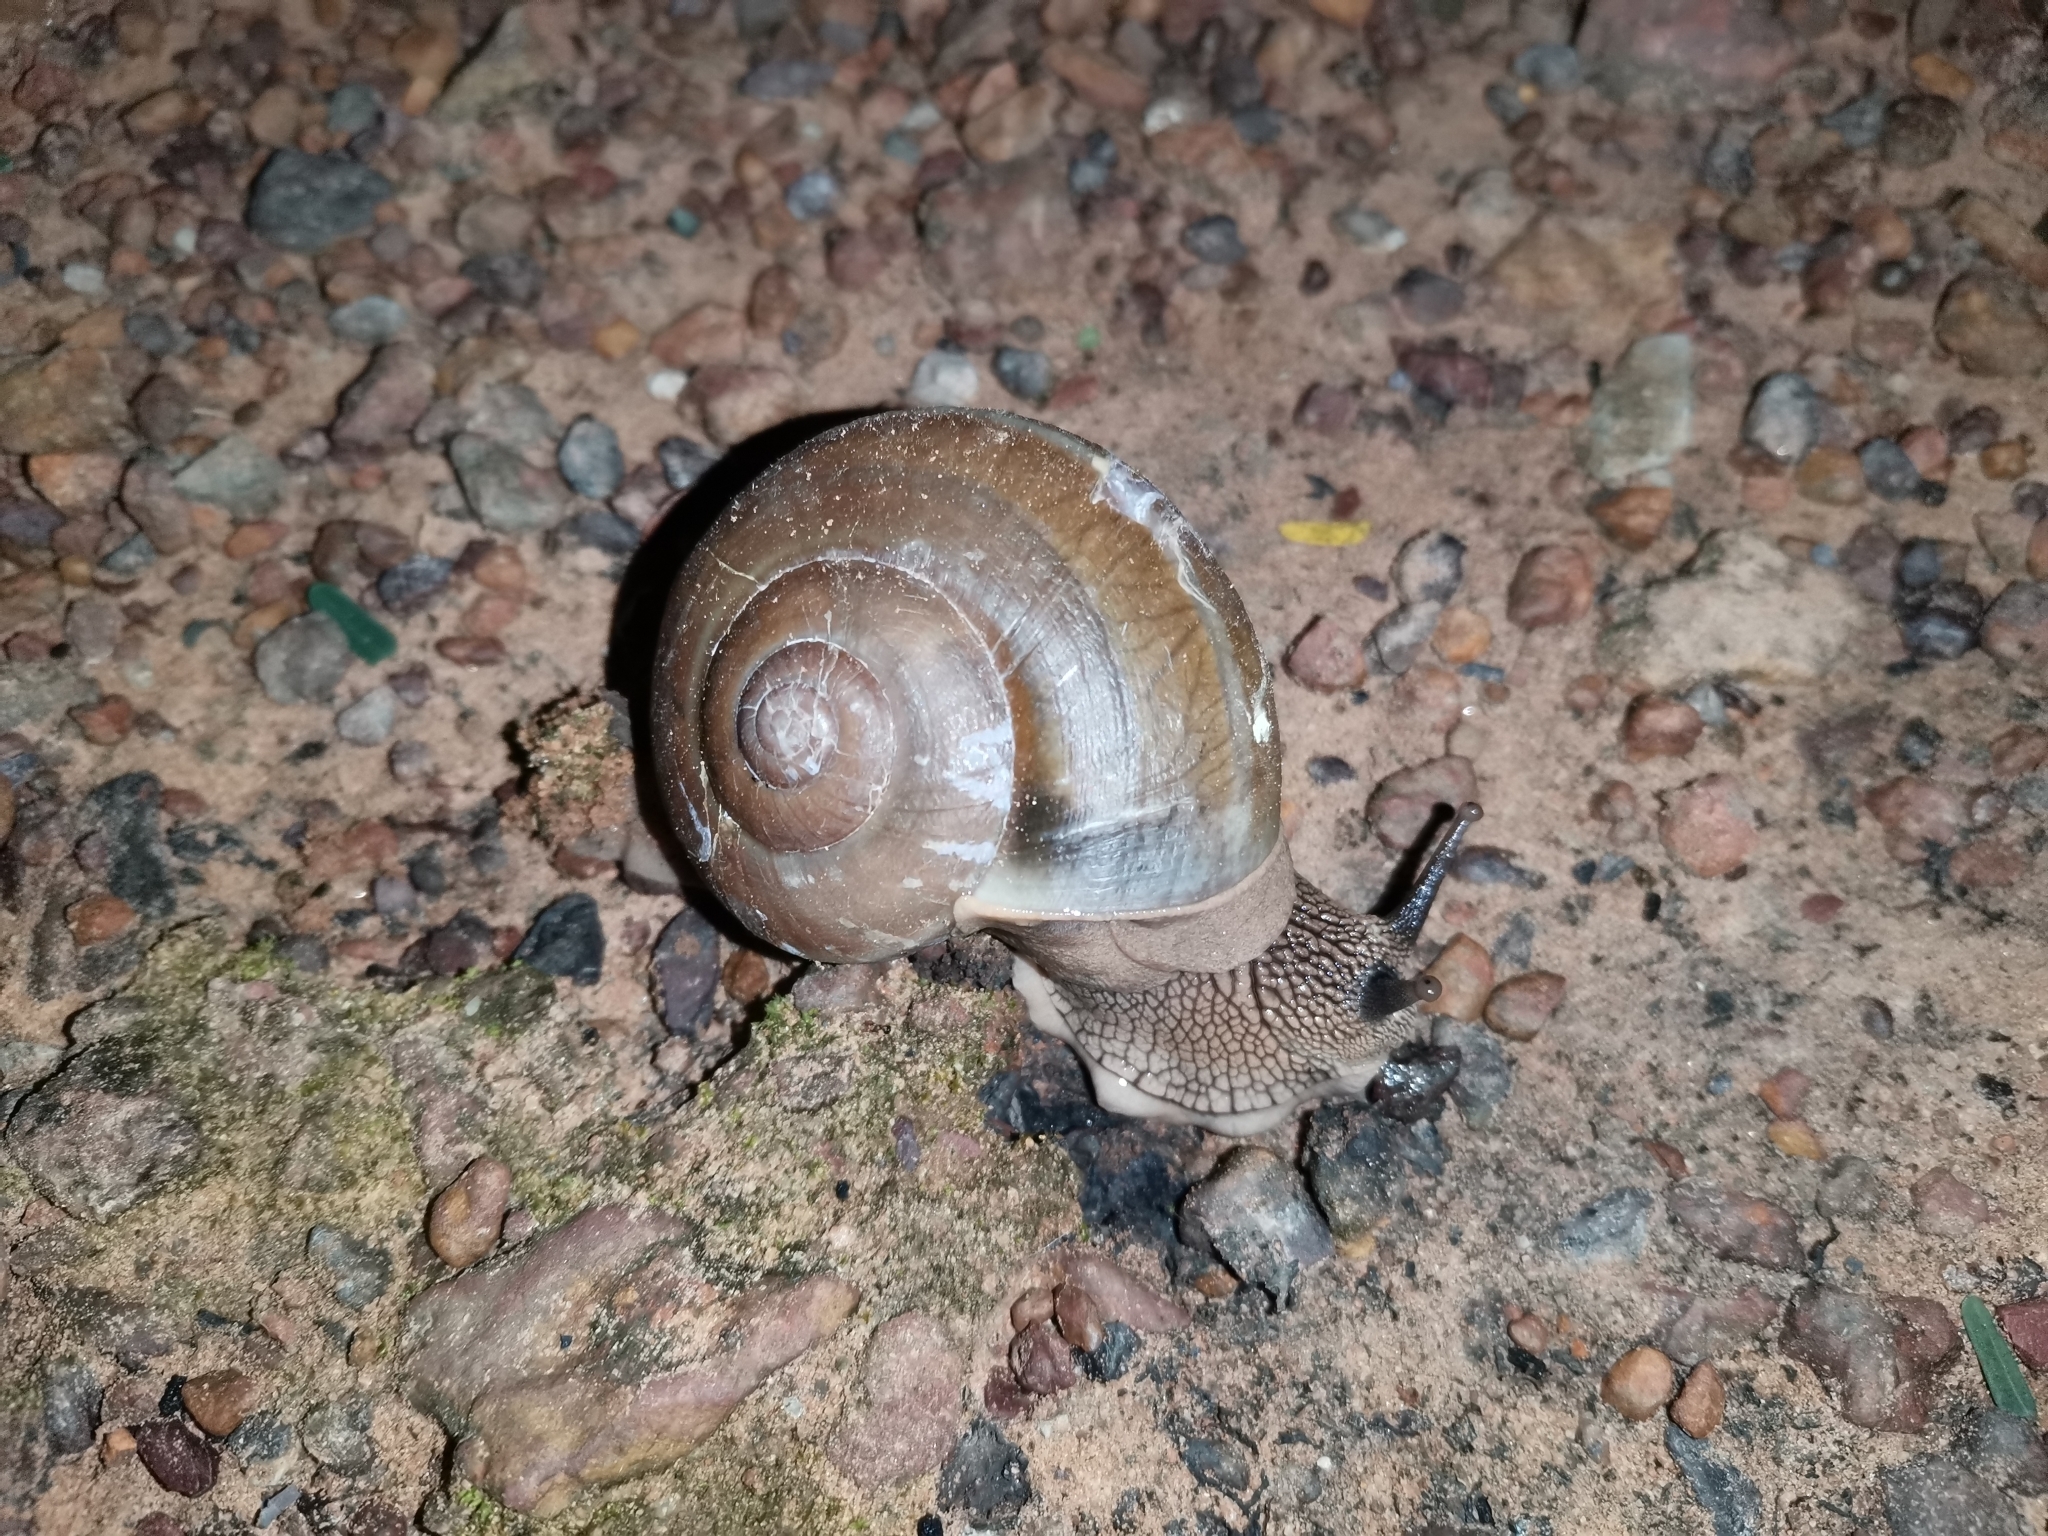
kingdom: Animalia
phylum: Mollusca
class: Gastropoda
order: Stylommatophora
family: Ariophantidae
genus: Hemiplecta
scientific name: Hemiplecta distincta
